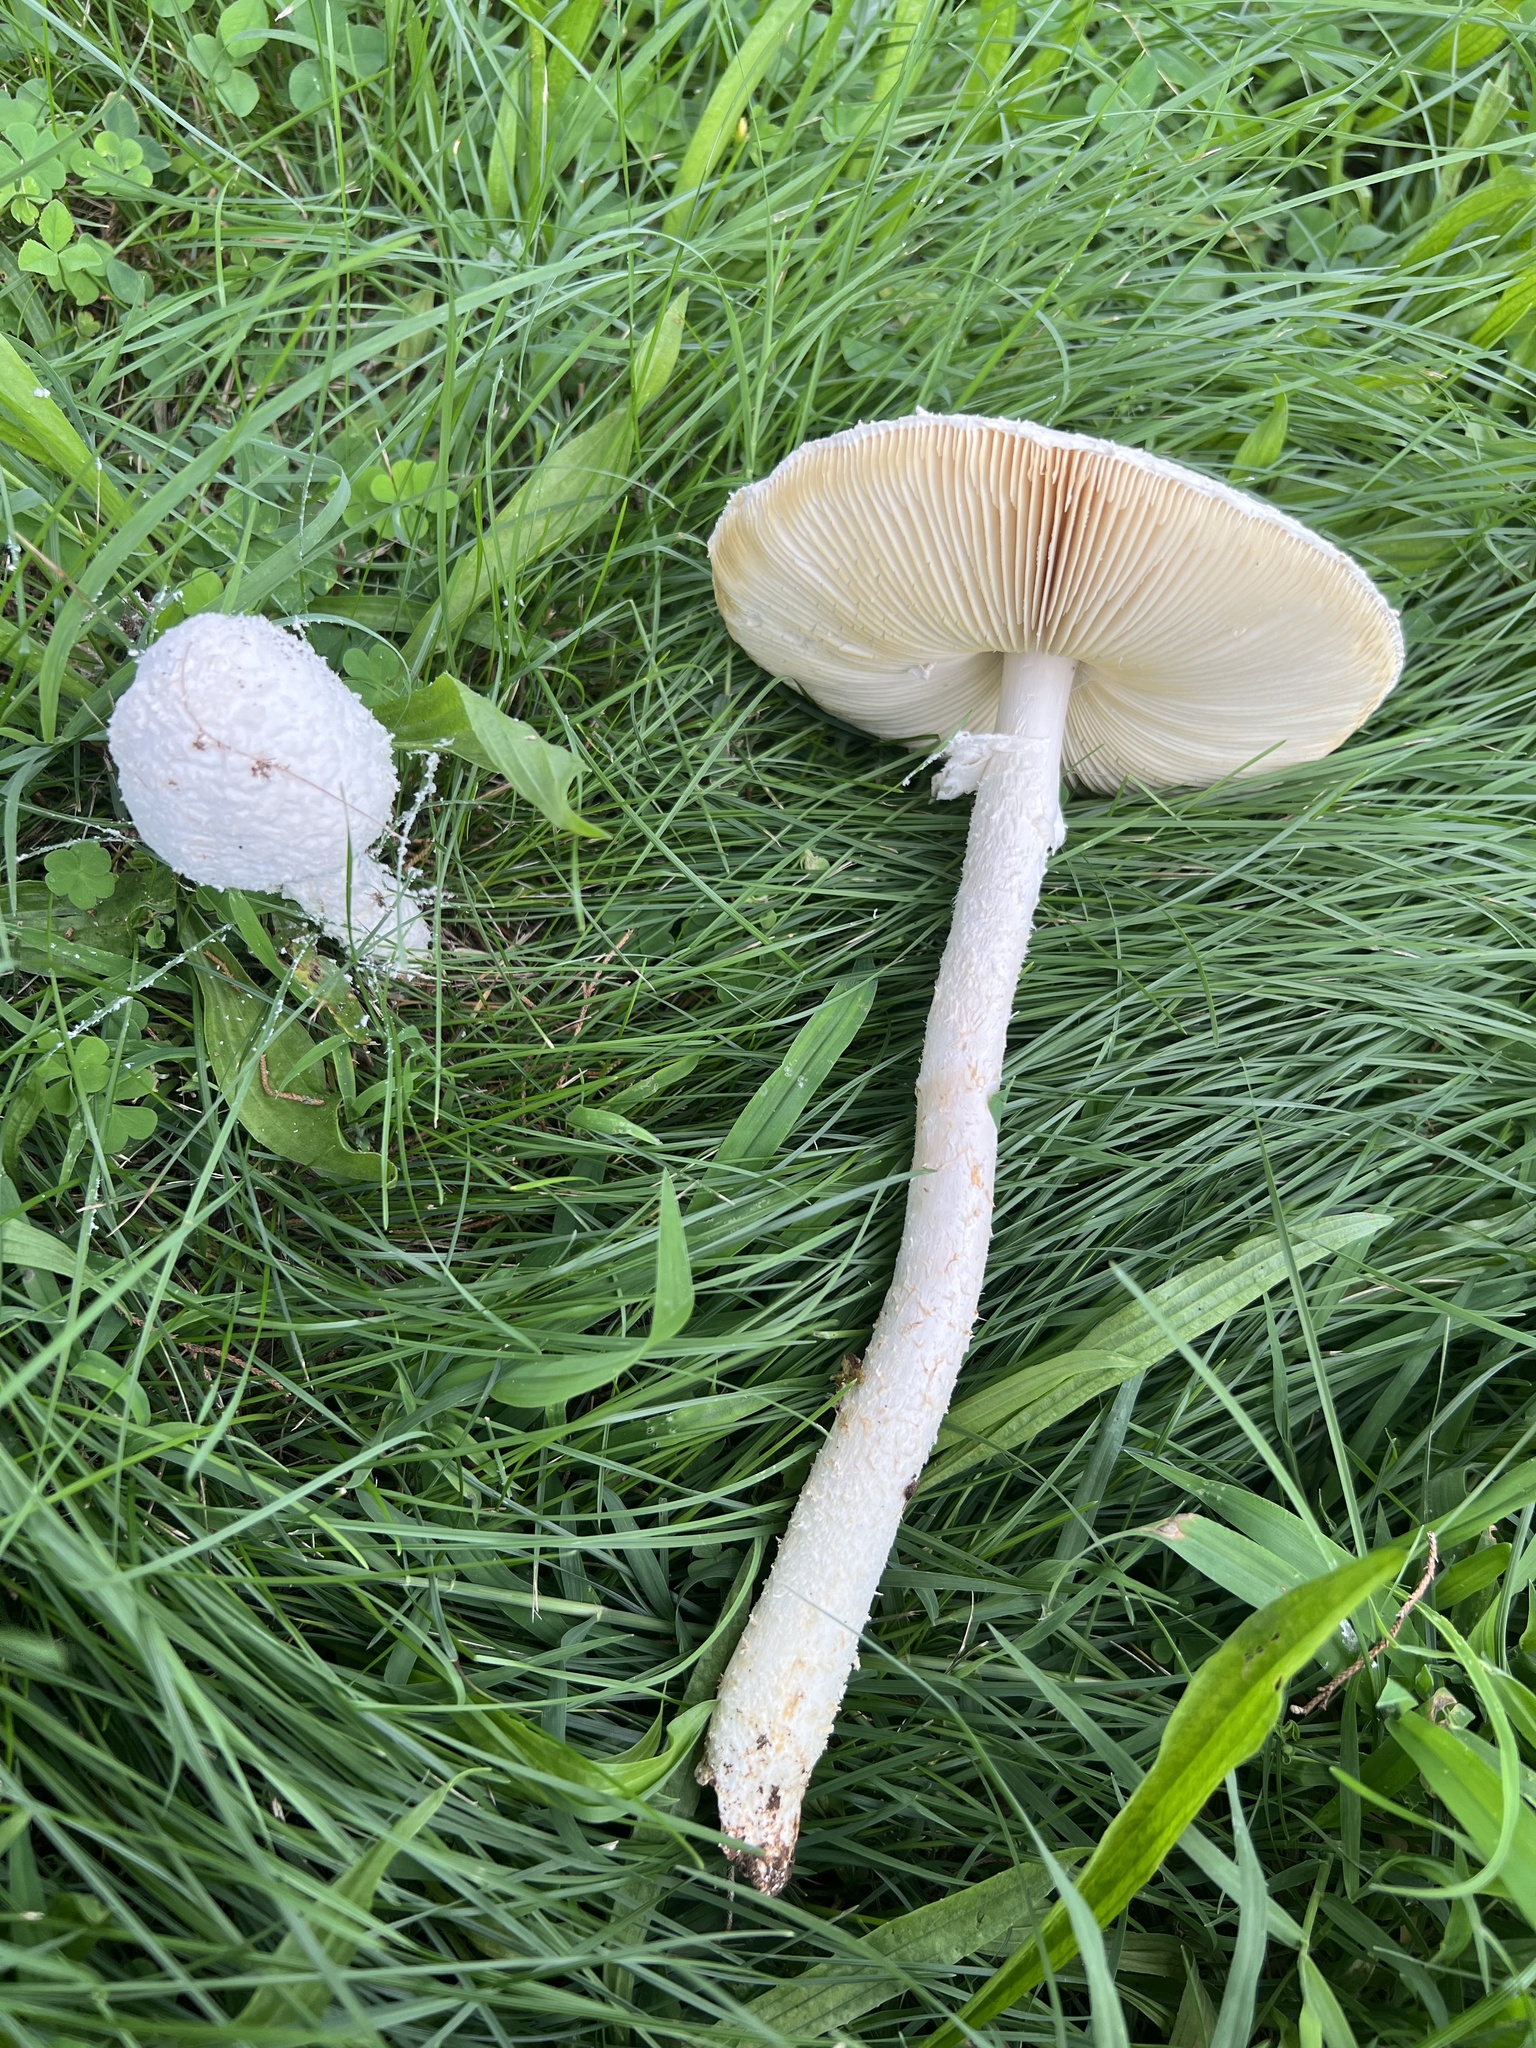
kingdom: Fungi
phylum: Basidiomycota
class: Agaricomycetes
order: Agaricales
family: Amanitaceae
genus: Amanita
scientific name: Amanita thiersii
